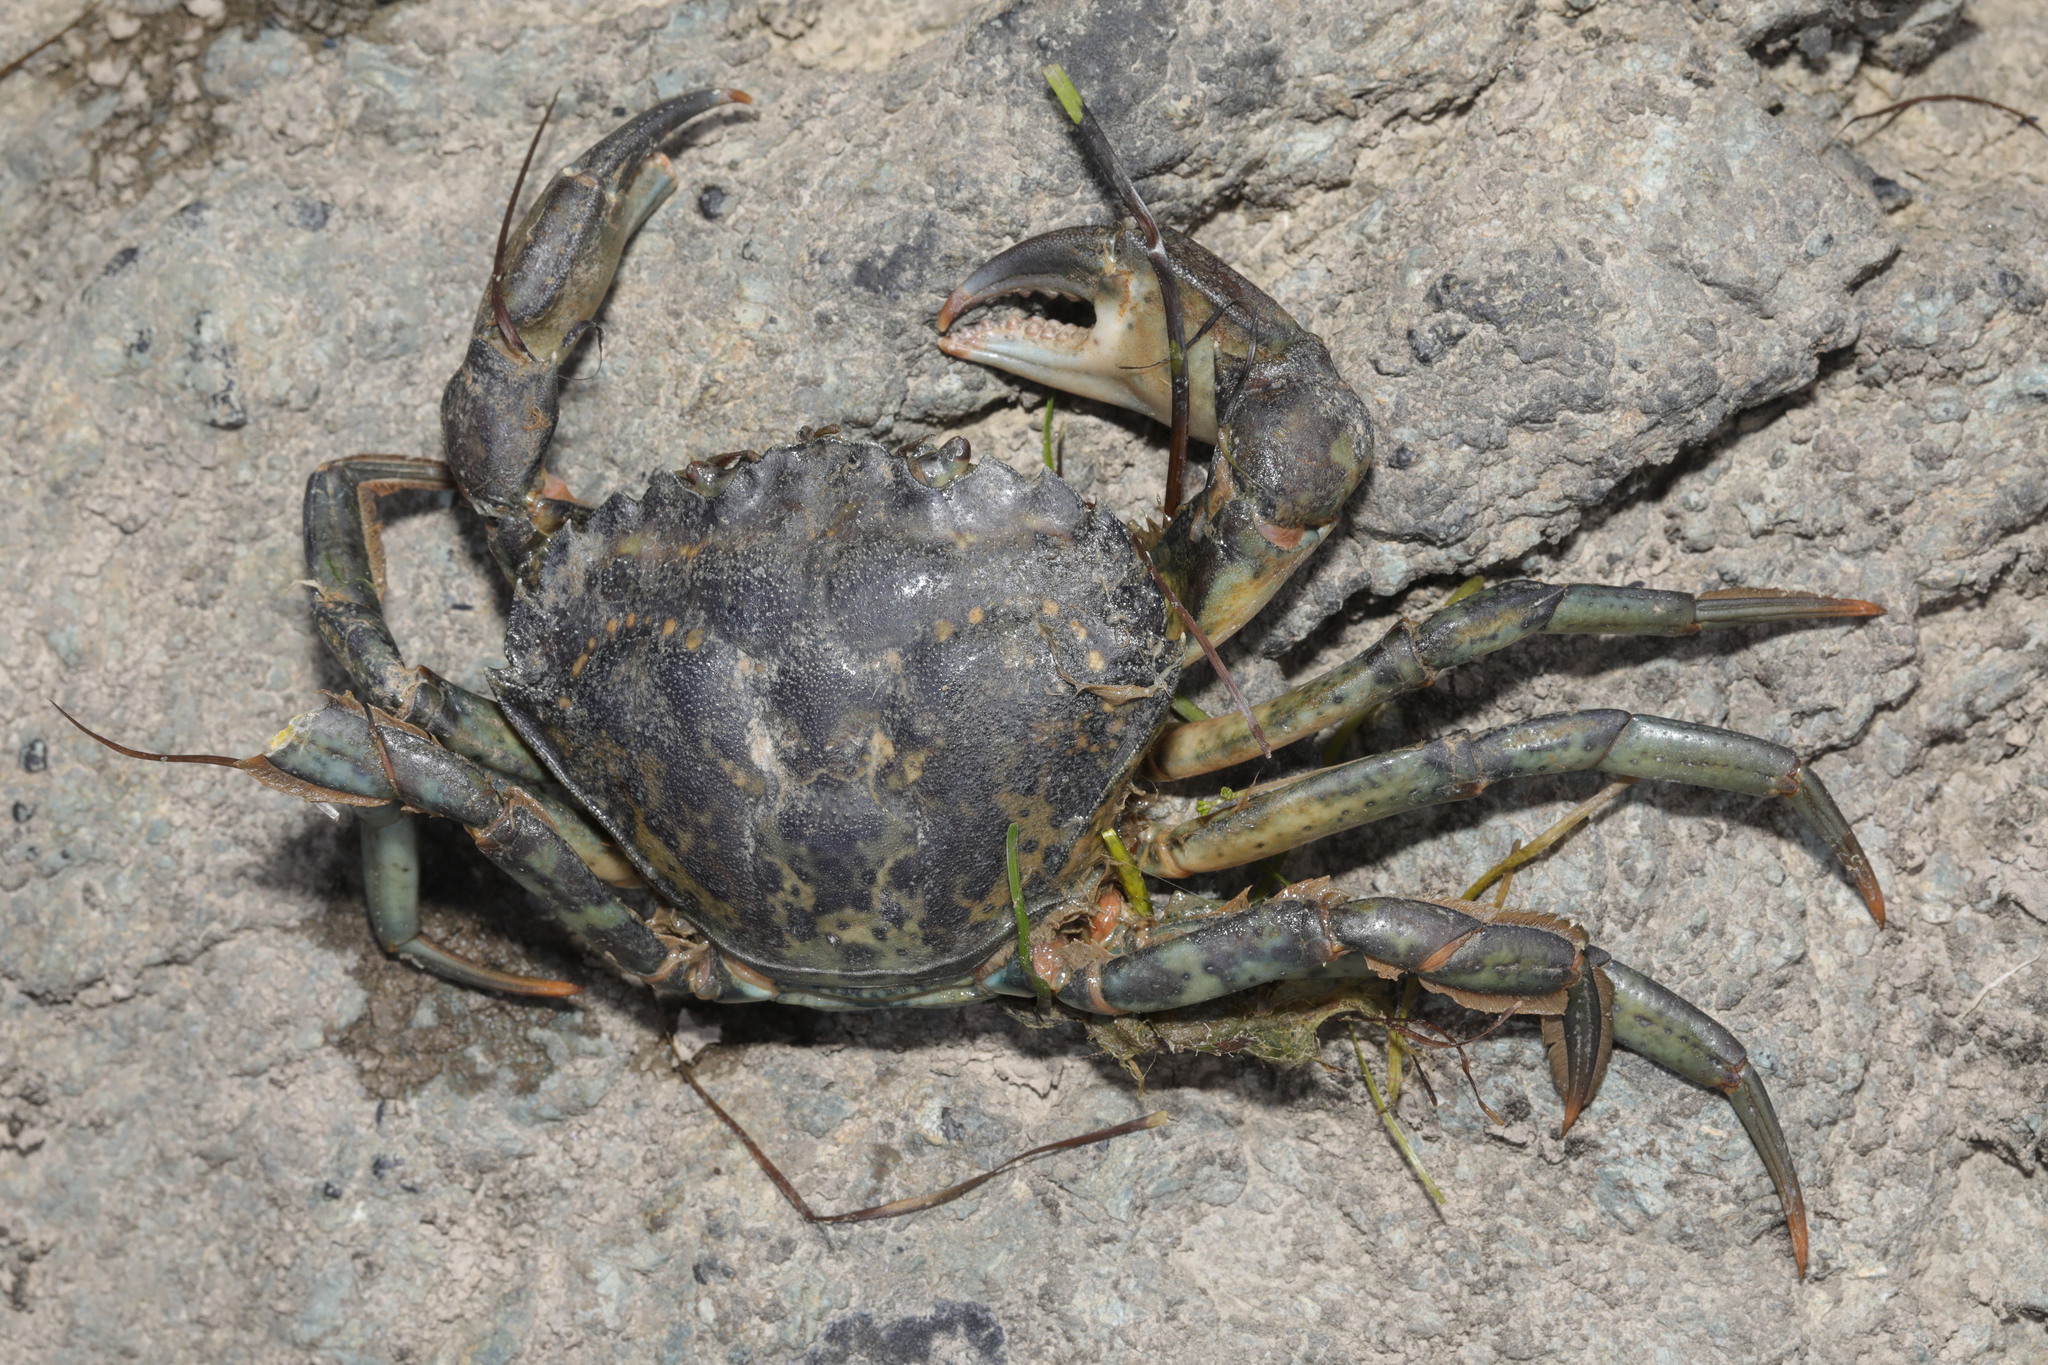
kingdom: Animalia
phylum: Arthropoda
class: Malacostraca
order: Decapoda
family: Carcinidae
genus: Carcinus
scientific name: Carcinus maenas
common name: European green crab
